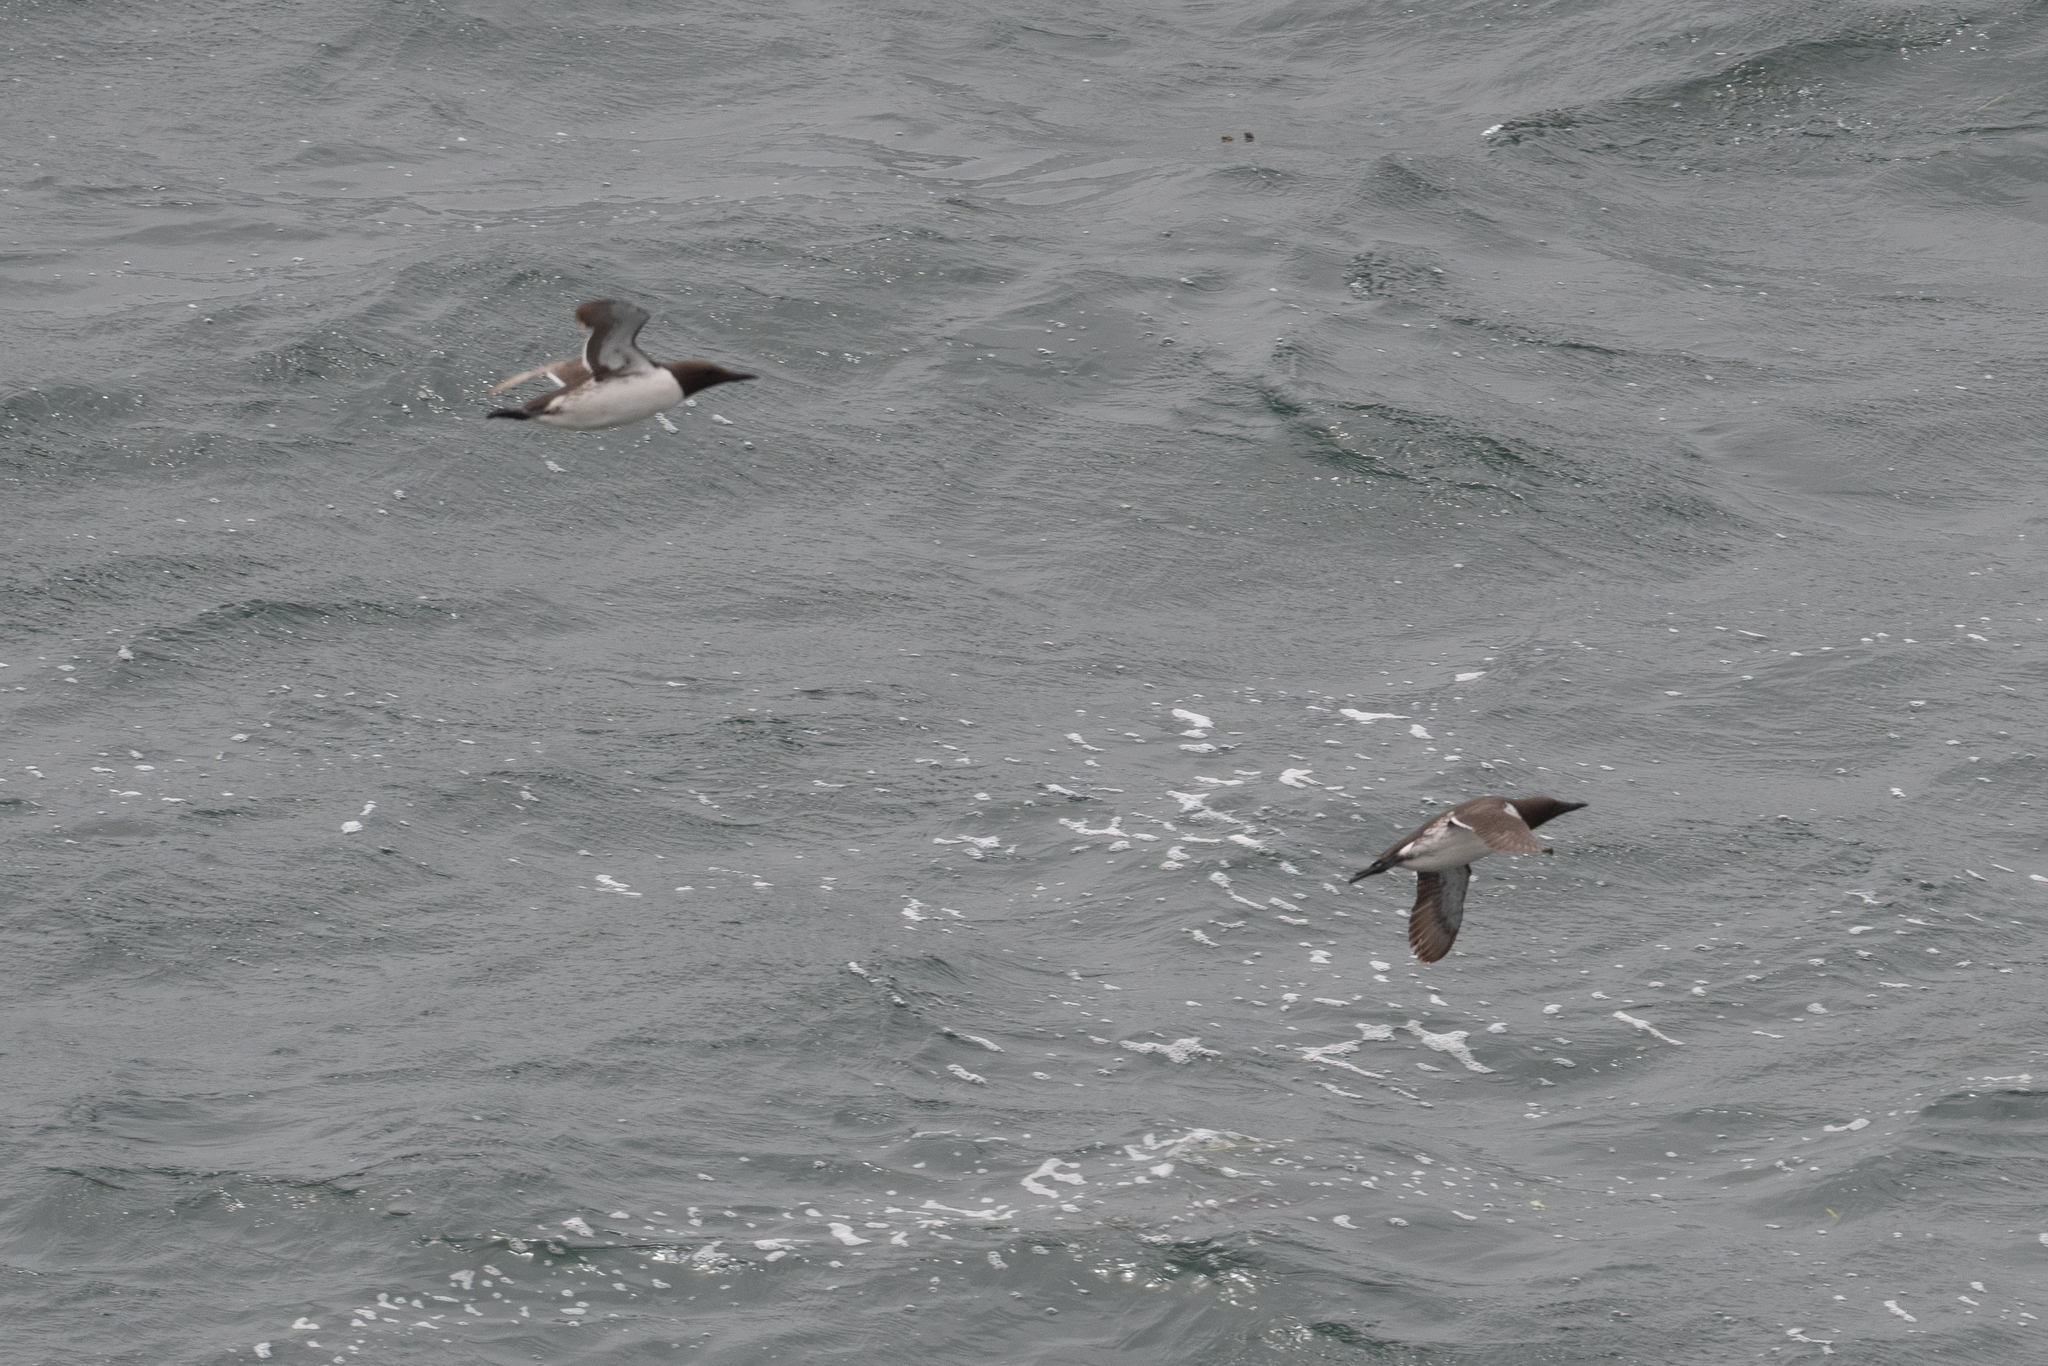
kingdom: Animalia
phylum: Chordata
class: Aves
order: Charadriiformes
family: Alcidae
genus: Uria
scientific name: Uria aalge
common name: Common murre
